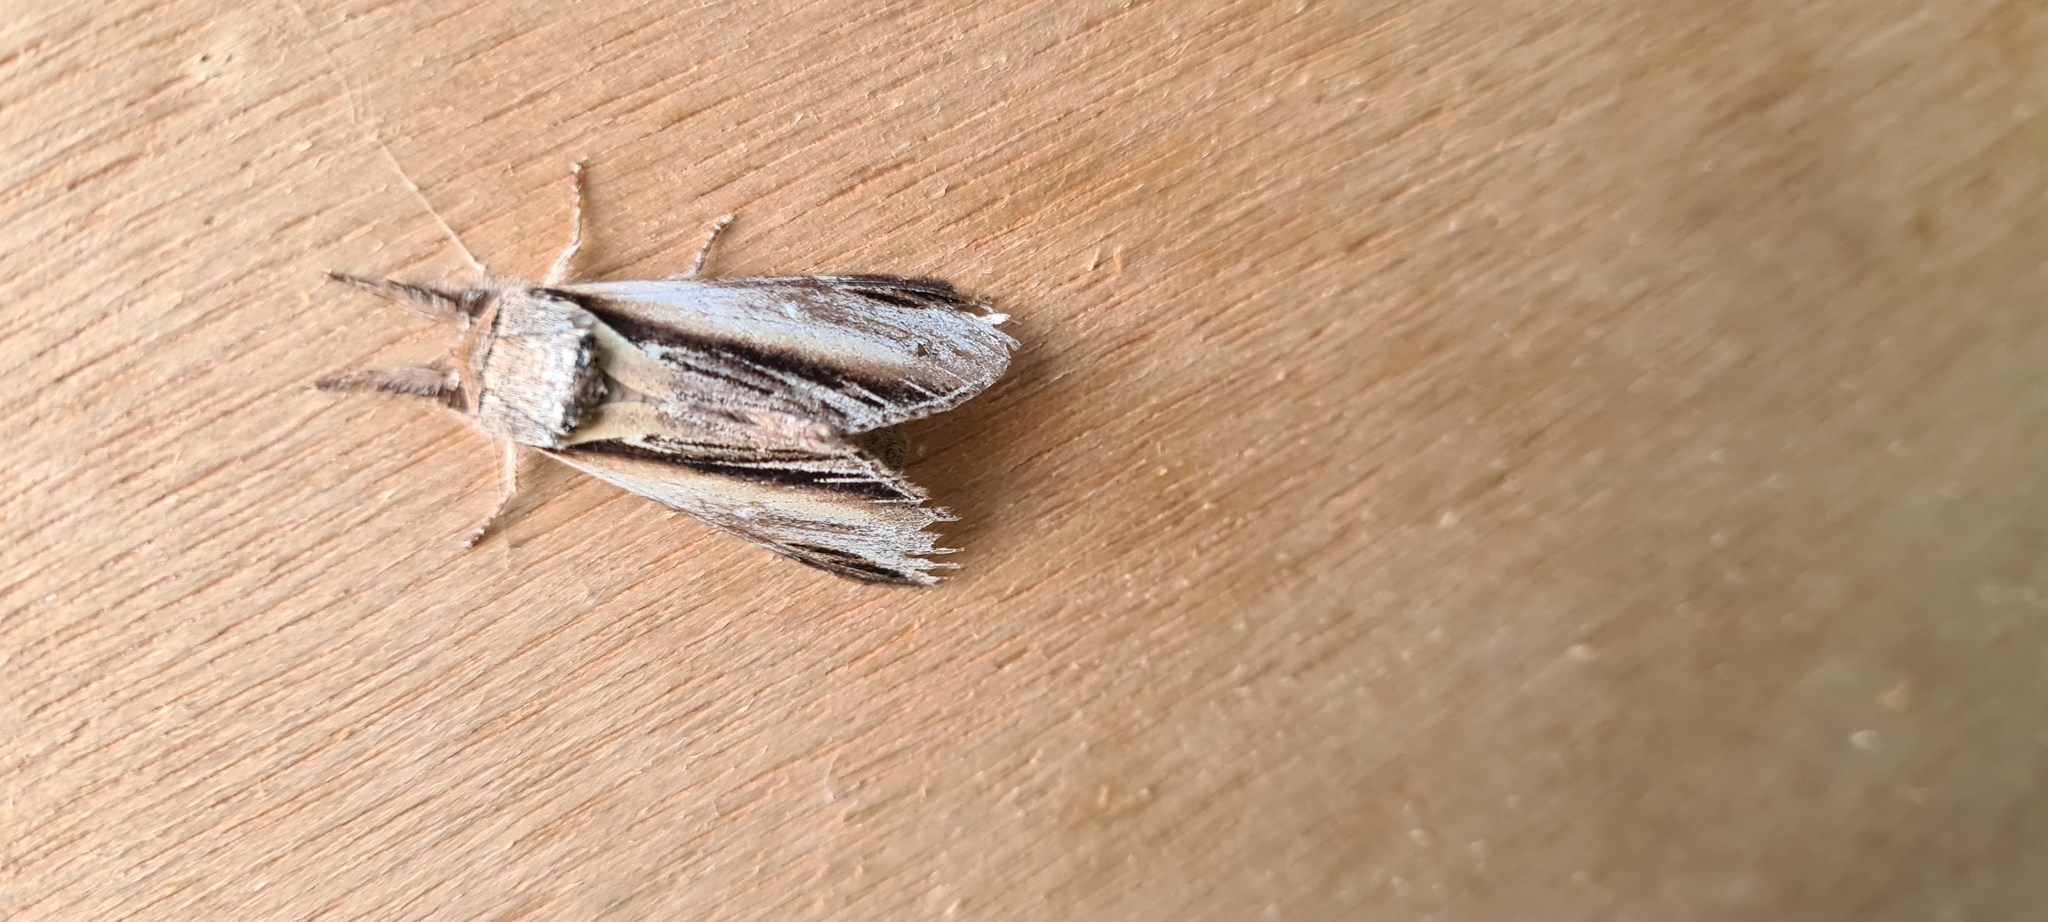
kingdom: Animalia
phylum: Arthropoda
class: Insecta
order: Lepidoptera
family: Notodontidae
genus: Pheosia
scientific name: Pheosia tremula
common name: Swallow prominent
